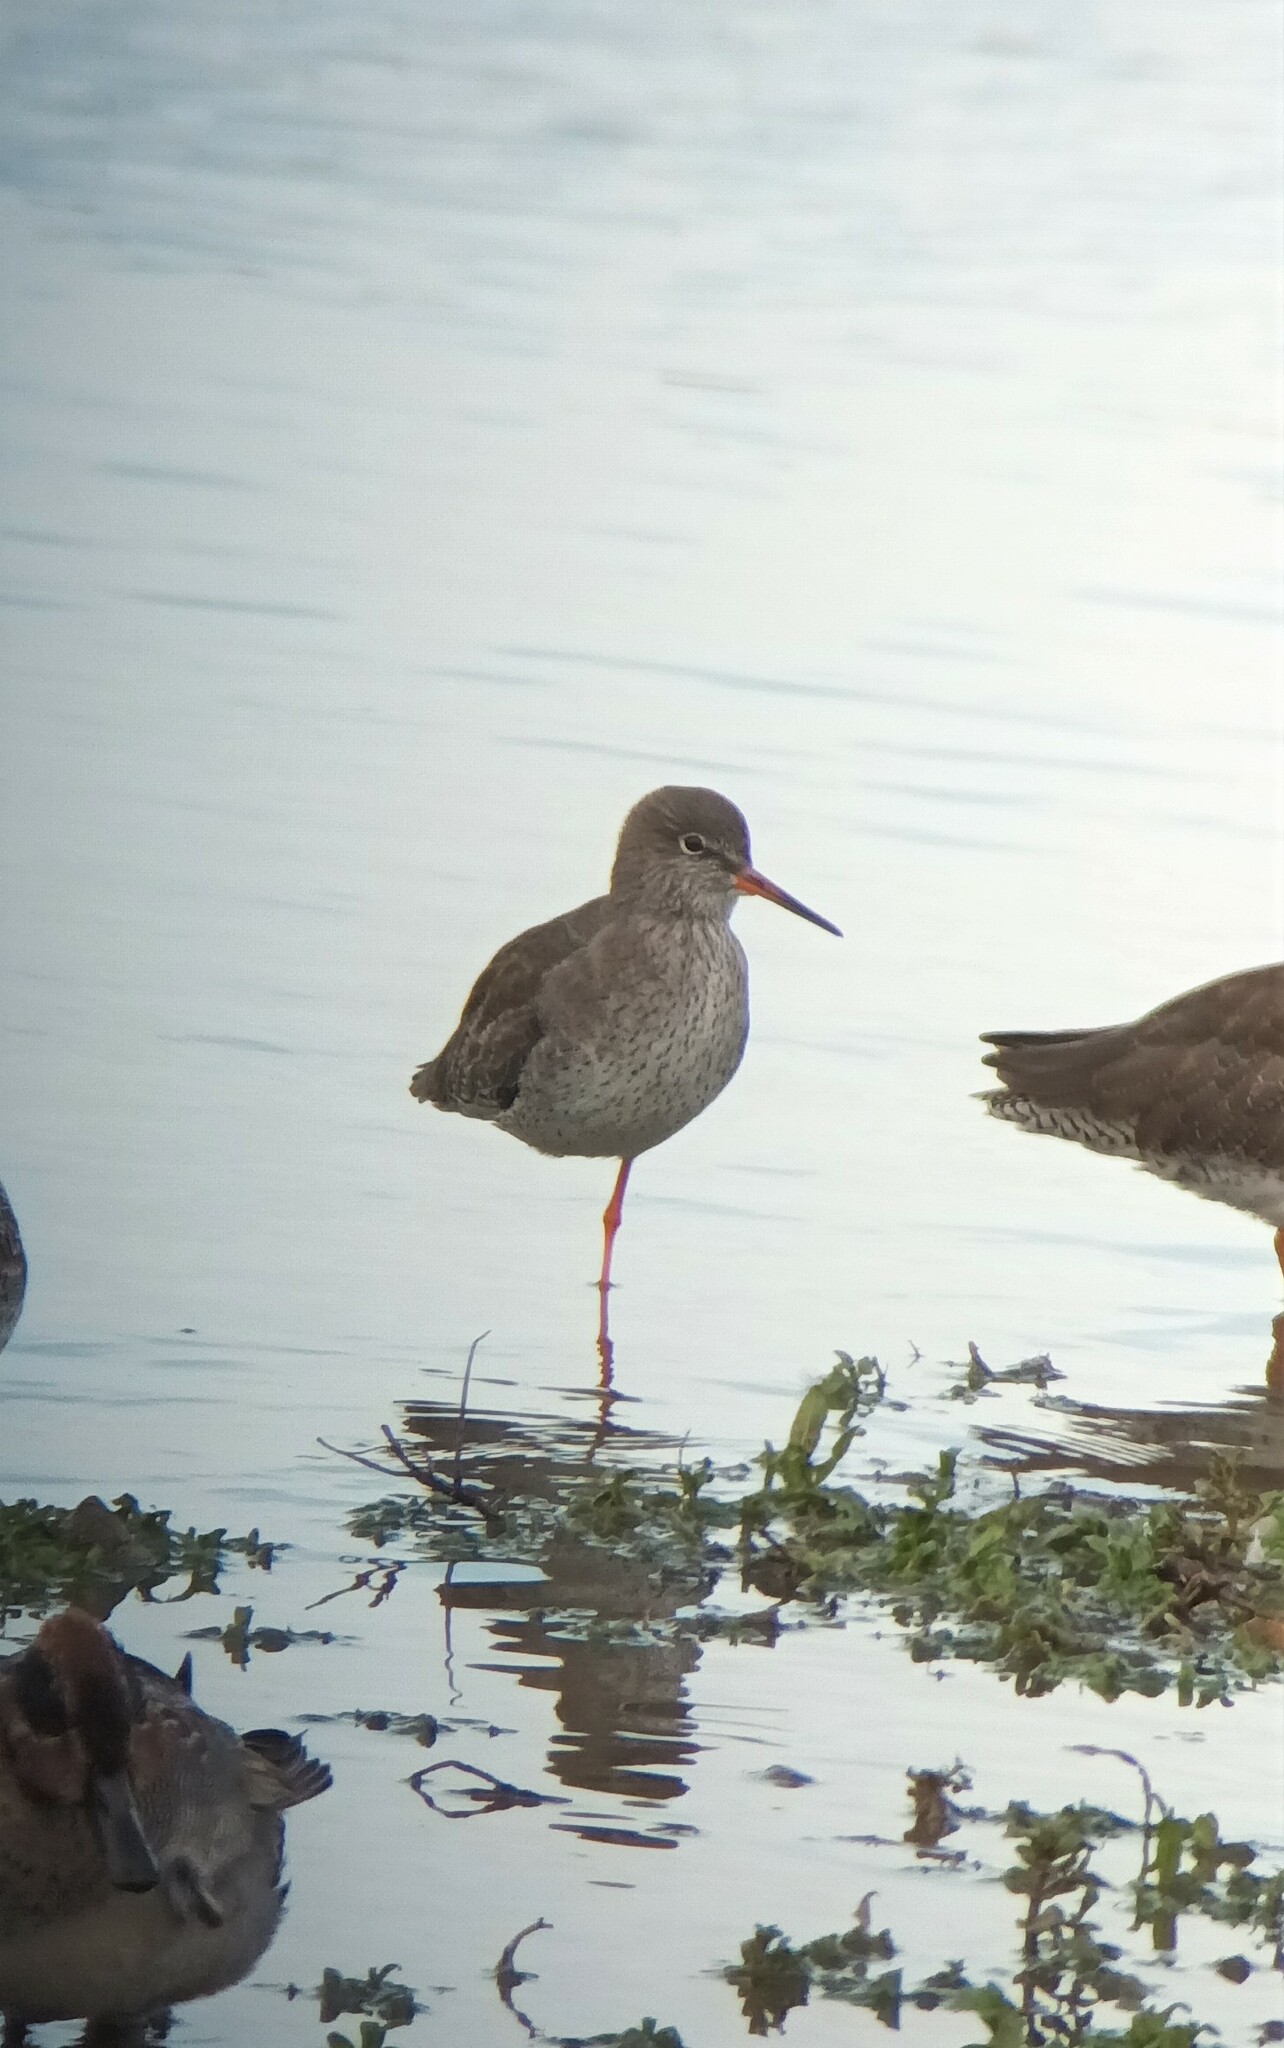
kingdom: Animalia
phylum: Chordata
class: Aves
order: Charadriiformes
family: Scolopacidae
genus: Tringa
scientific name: Tringa totanus
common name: Common redshank
